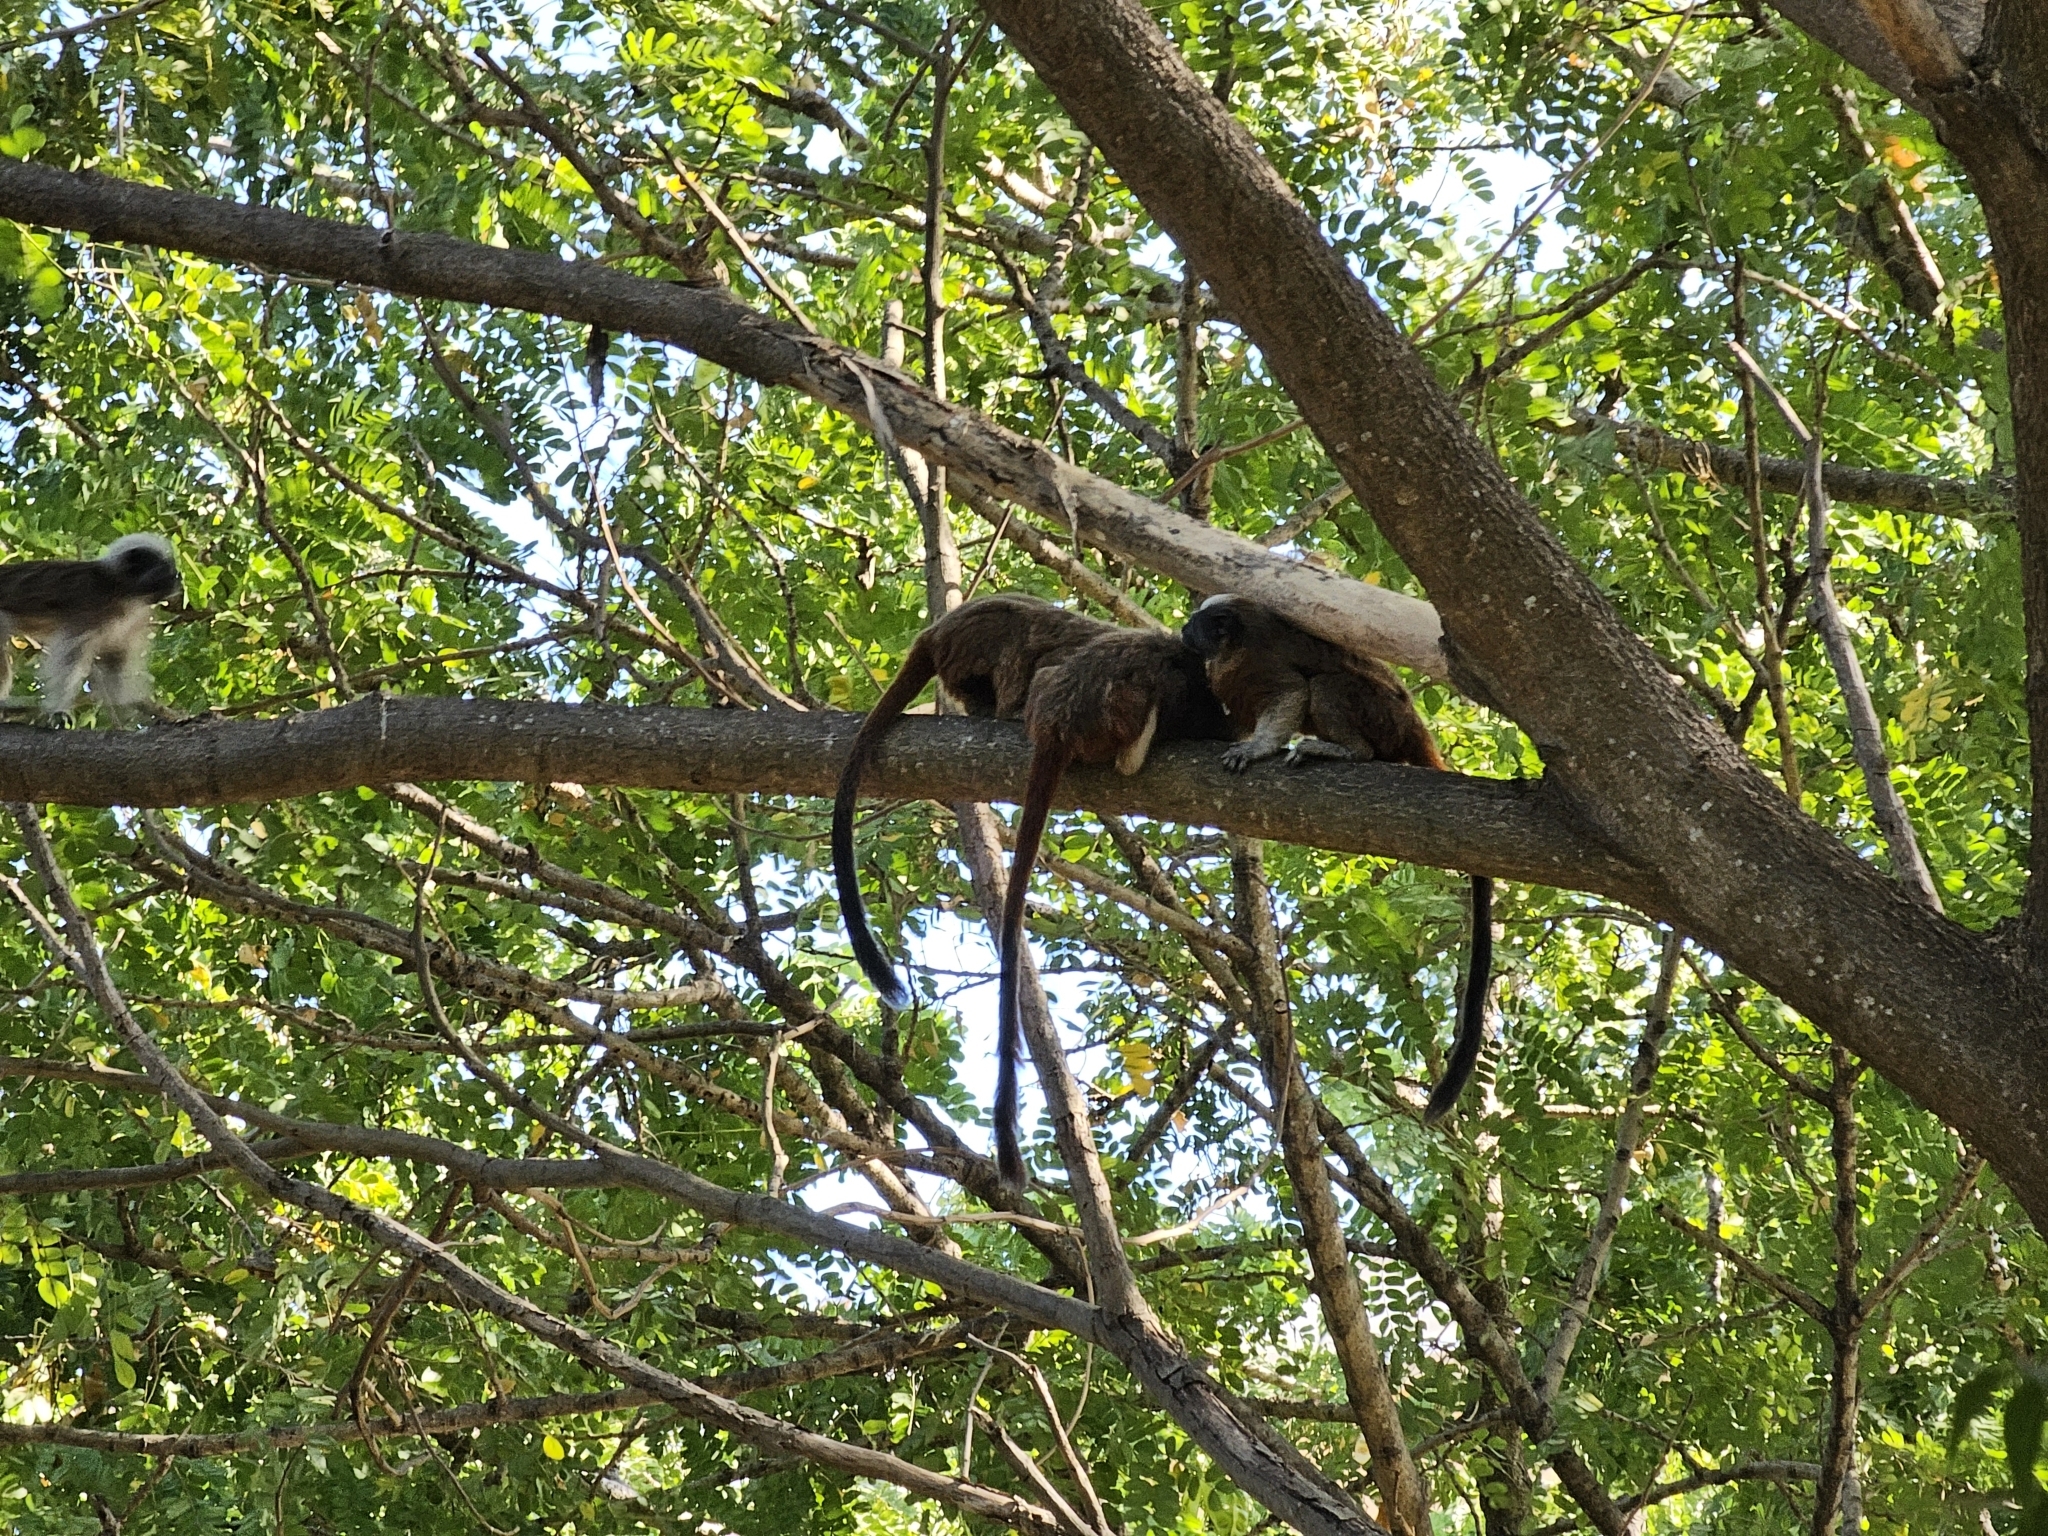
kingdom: Animalia
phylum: Chordata
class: Mammalia
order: Primates
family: Callitrichidae
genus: Saguinus
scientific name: Saguinus oedipus
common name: Cottontop tamarin
